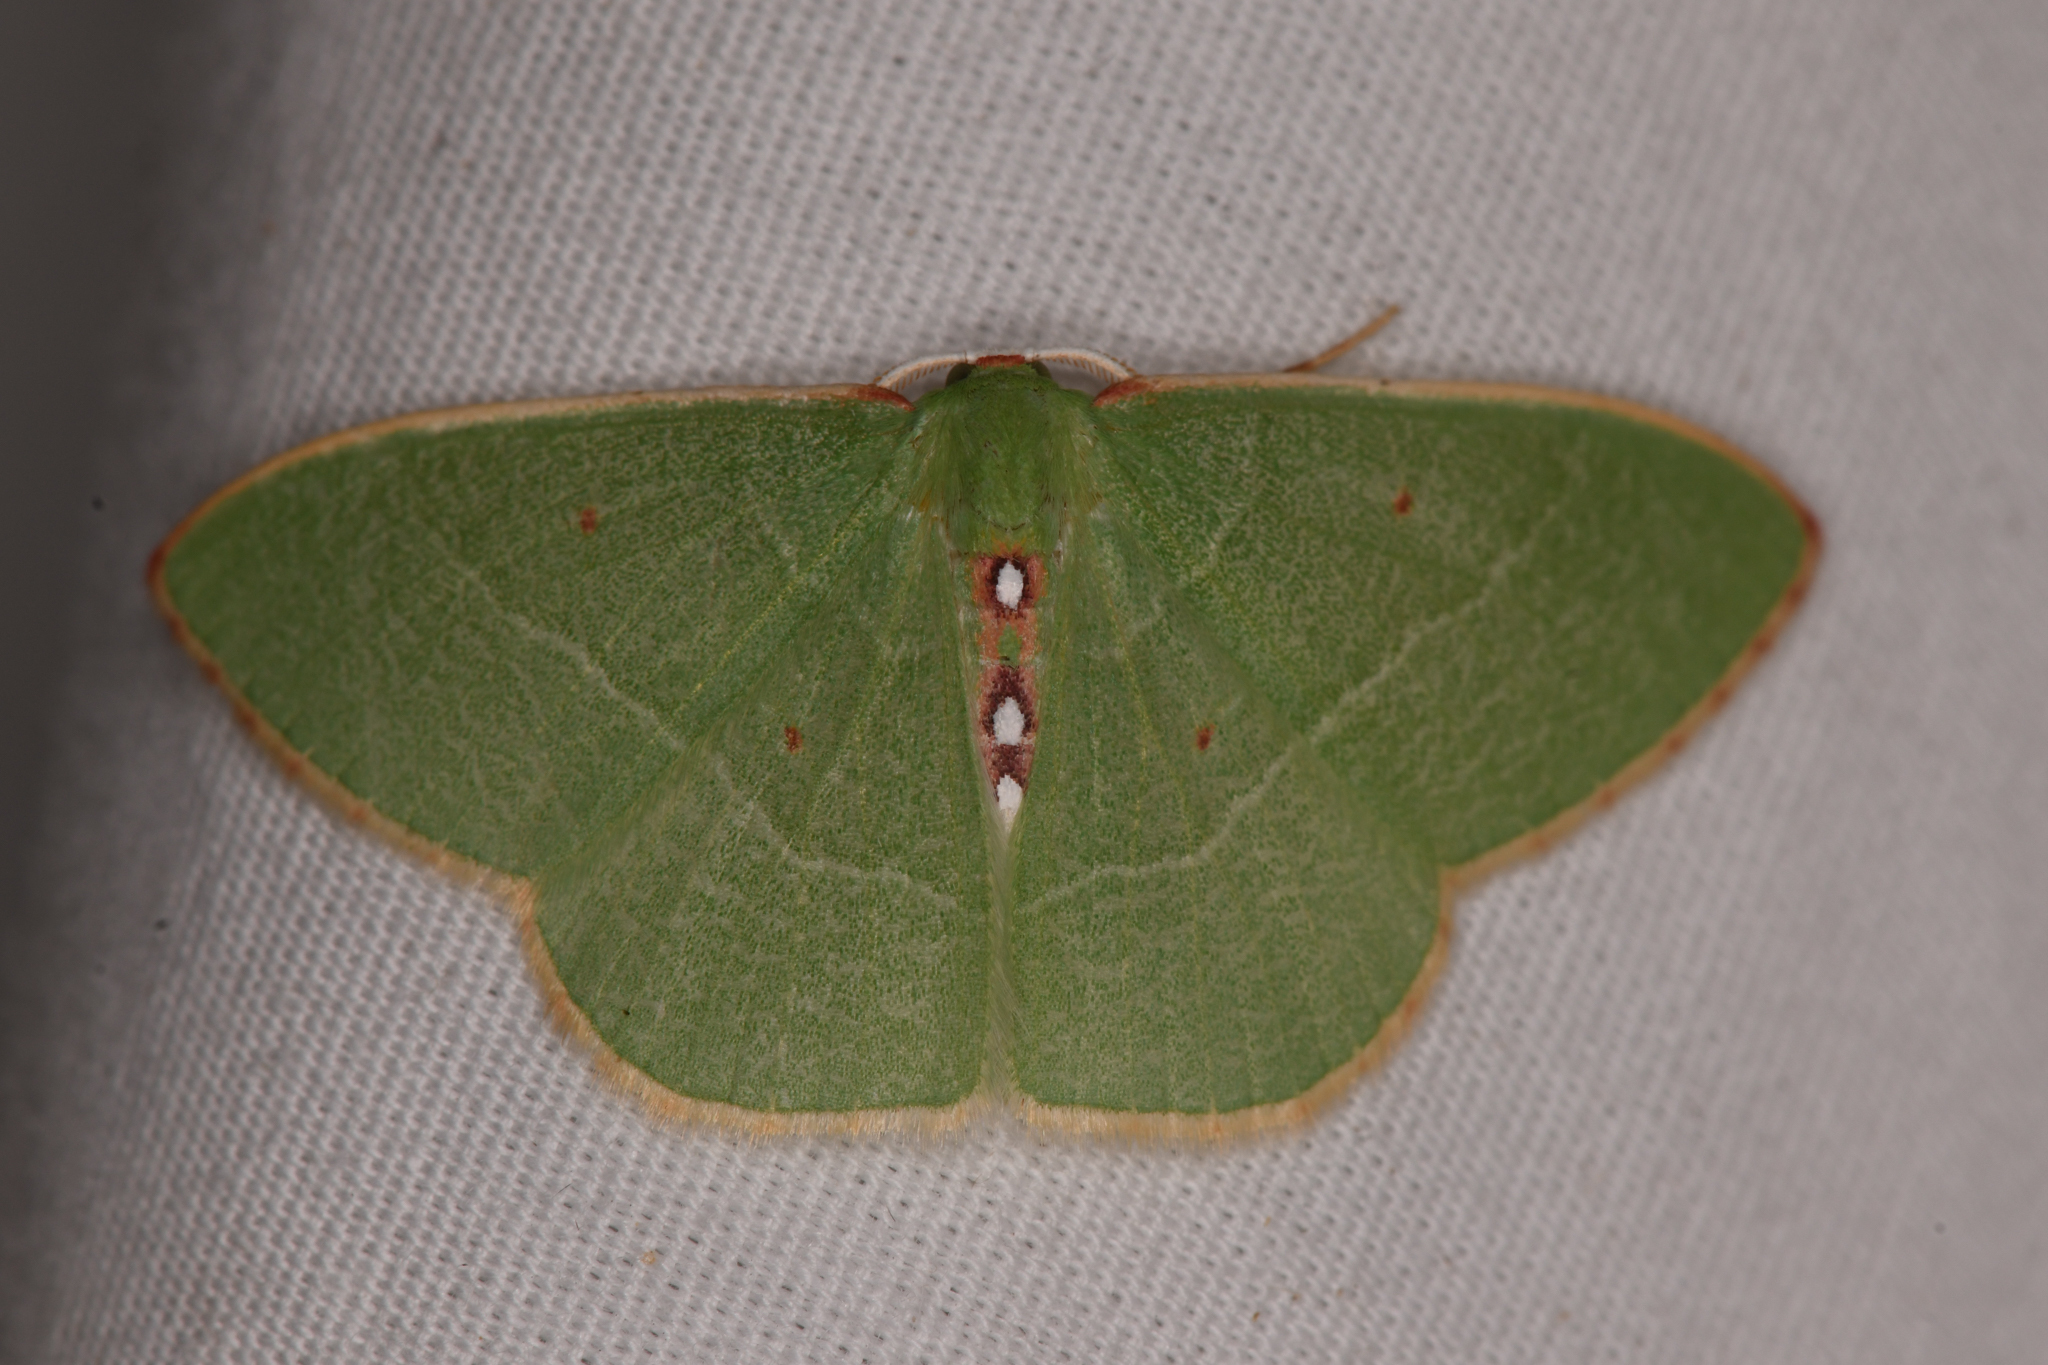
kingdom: Animalia
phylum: Arthropoda
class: Insecta
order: Lepidoptera
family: Geometridae
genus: Nemoria
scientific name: Nemoria darwiniata
